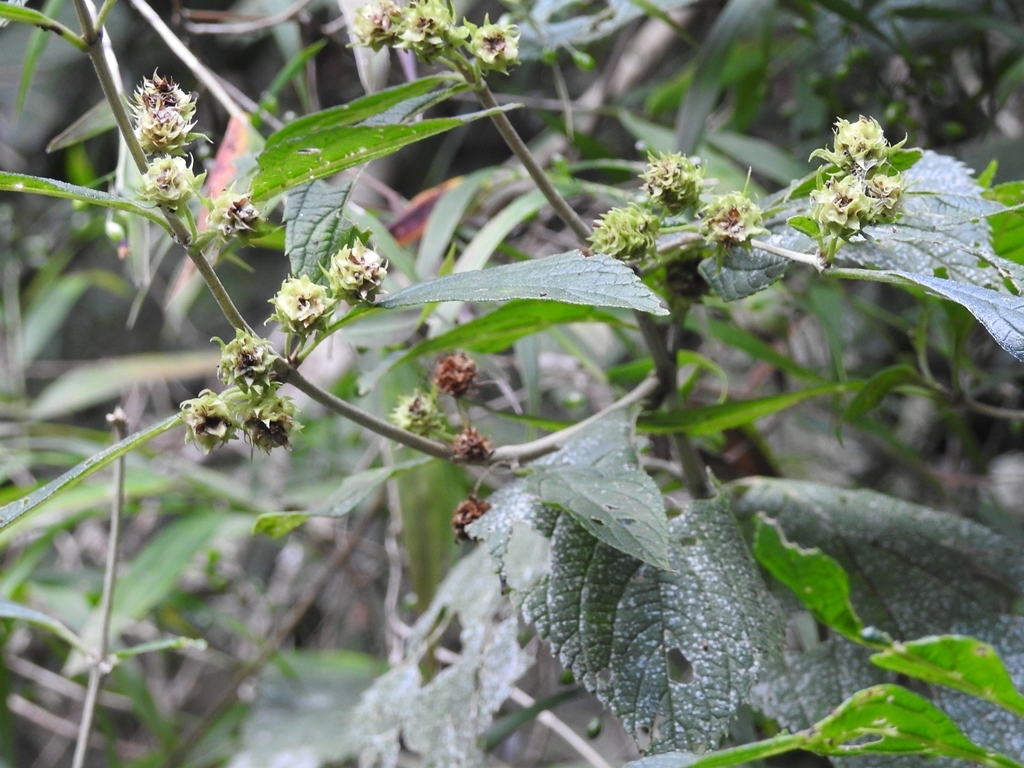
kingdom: Plantae
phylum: Tracheophyta
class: Magnoliopsida
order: Lamiales
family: Verbenaceae
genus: Lippia
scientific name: Lippia cardiostegia
